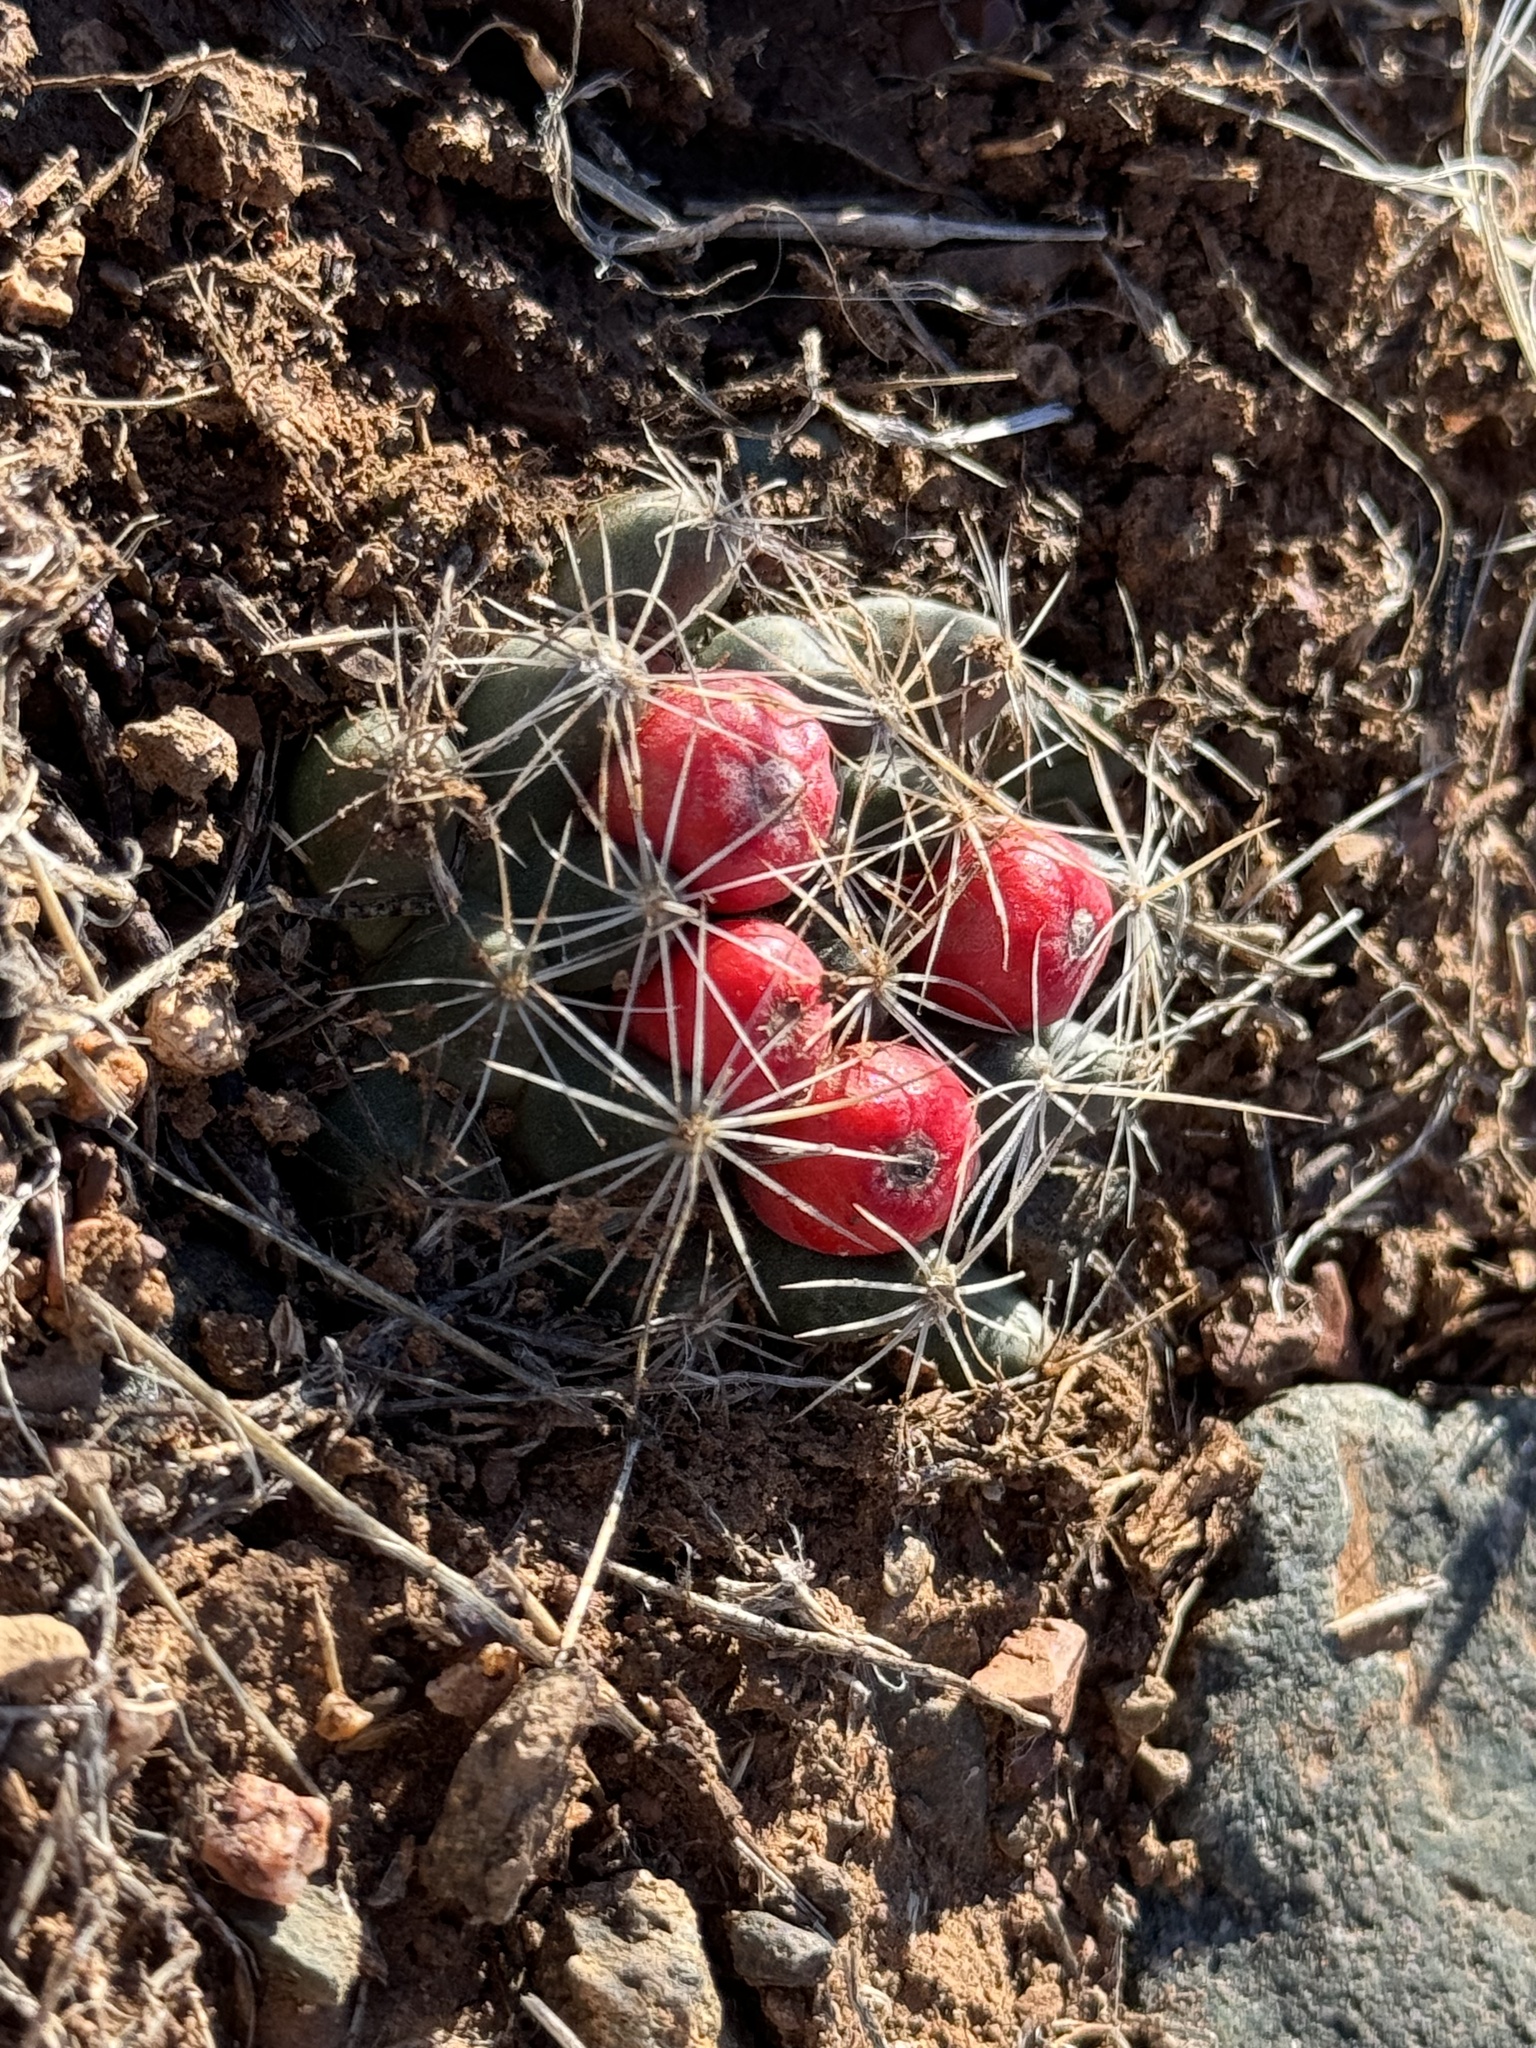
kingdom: Plantae
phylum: Tracheophyta
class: Magnoliopsida
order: Caryophyllales
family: Cactaceae
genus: Pelecyphora
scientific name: Pelecyphora missouriensis
